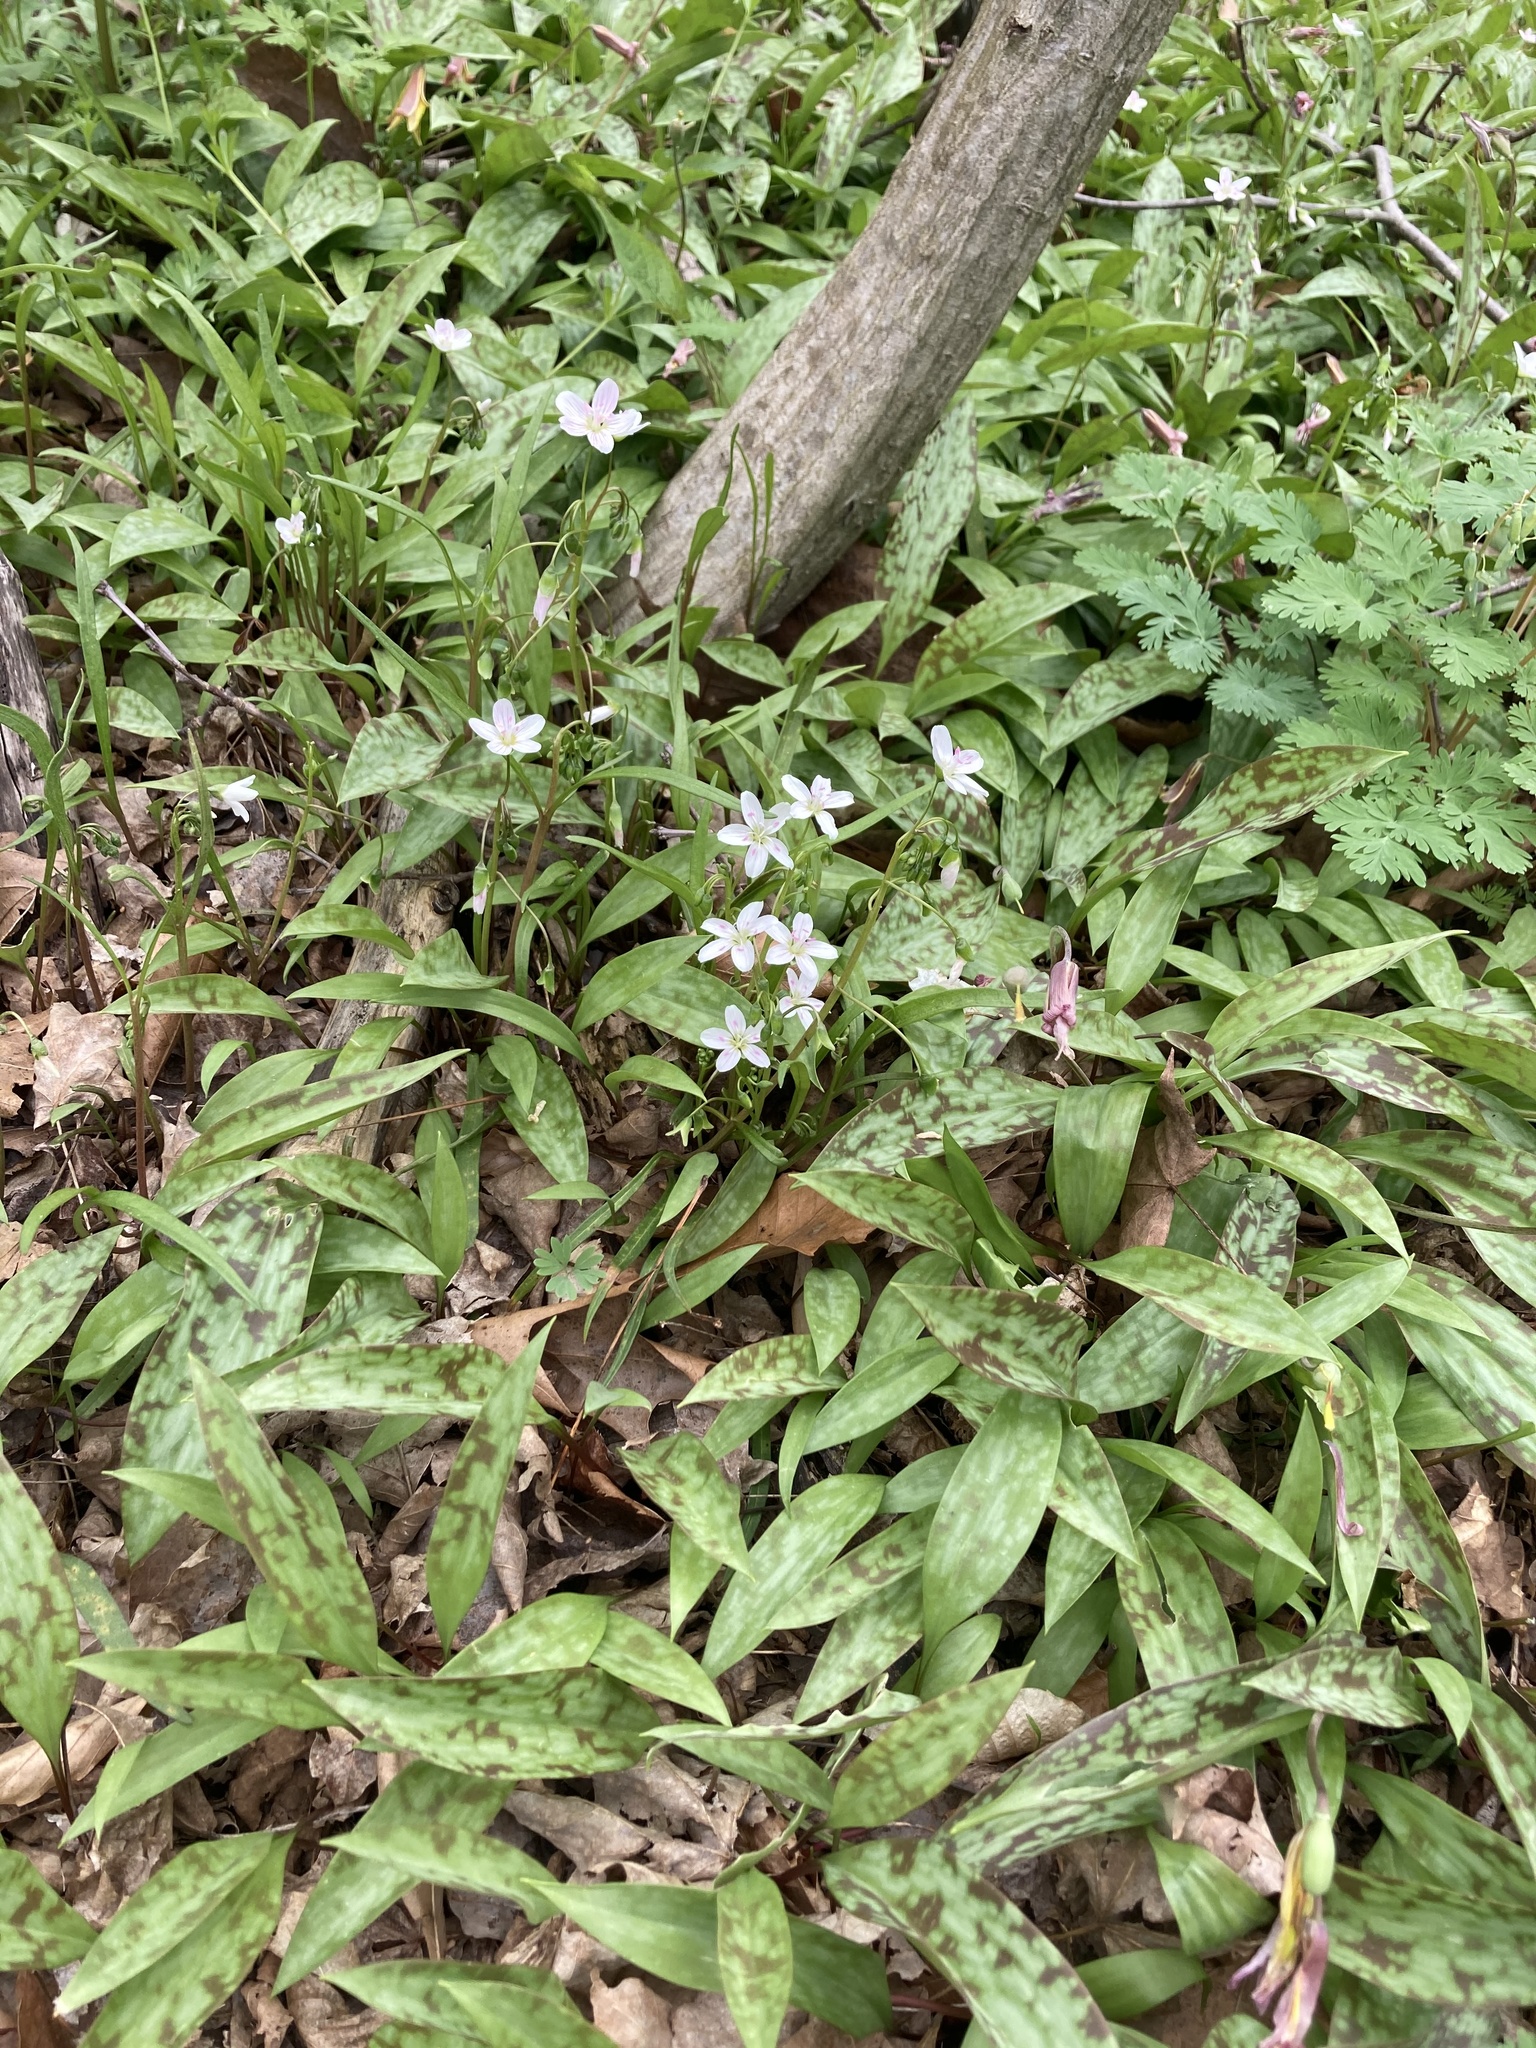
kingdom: Plantae
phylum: Tracheophyta
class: Liliopsida
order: Liliales
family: Liliaceae
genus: Erythronium
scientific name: Erythronium americanum
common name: Yellow adder's-tongue
